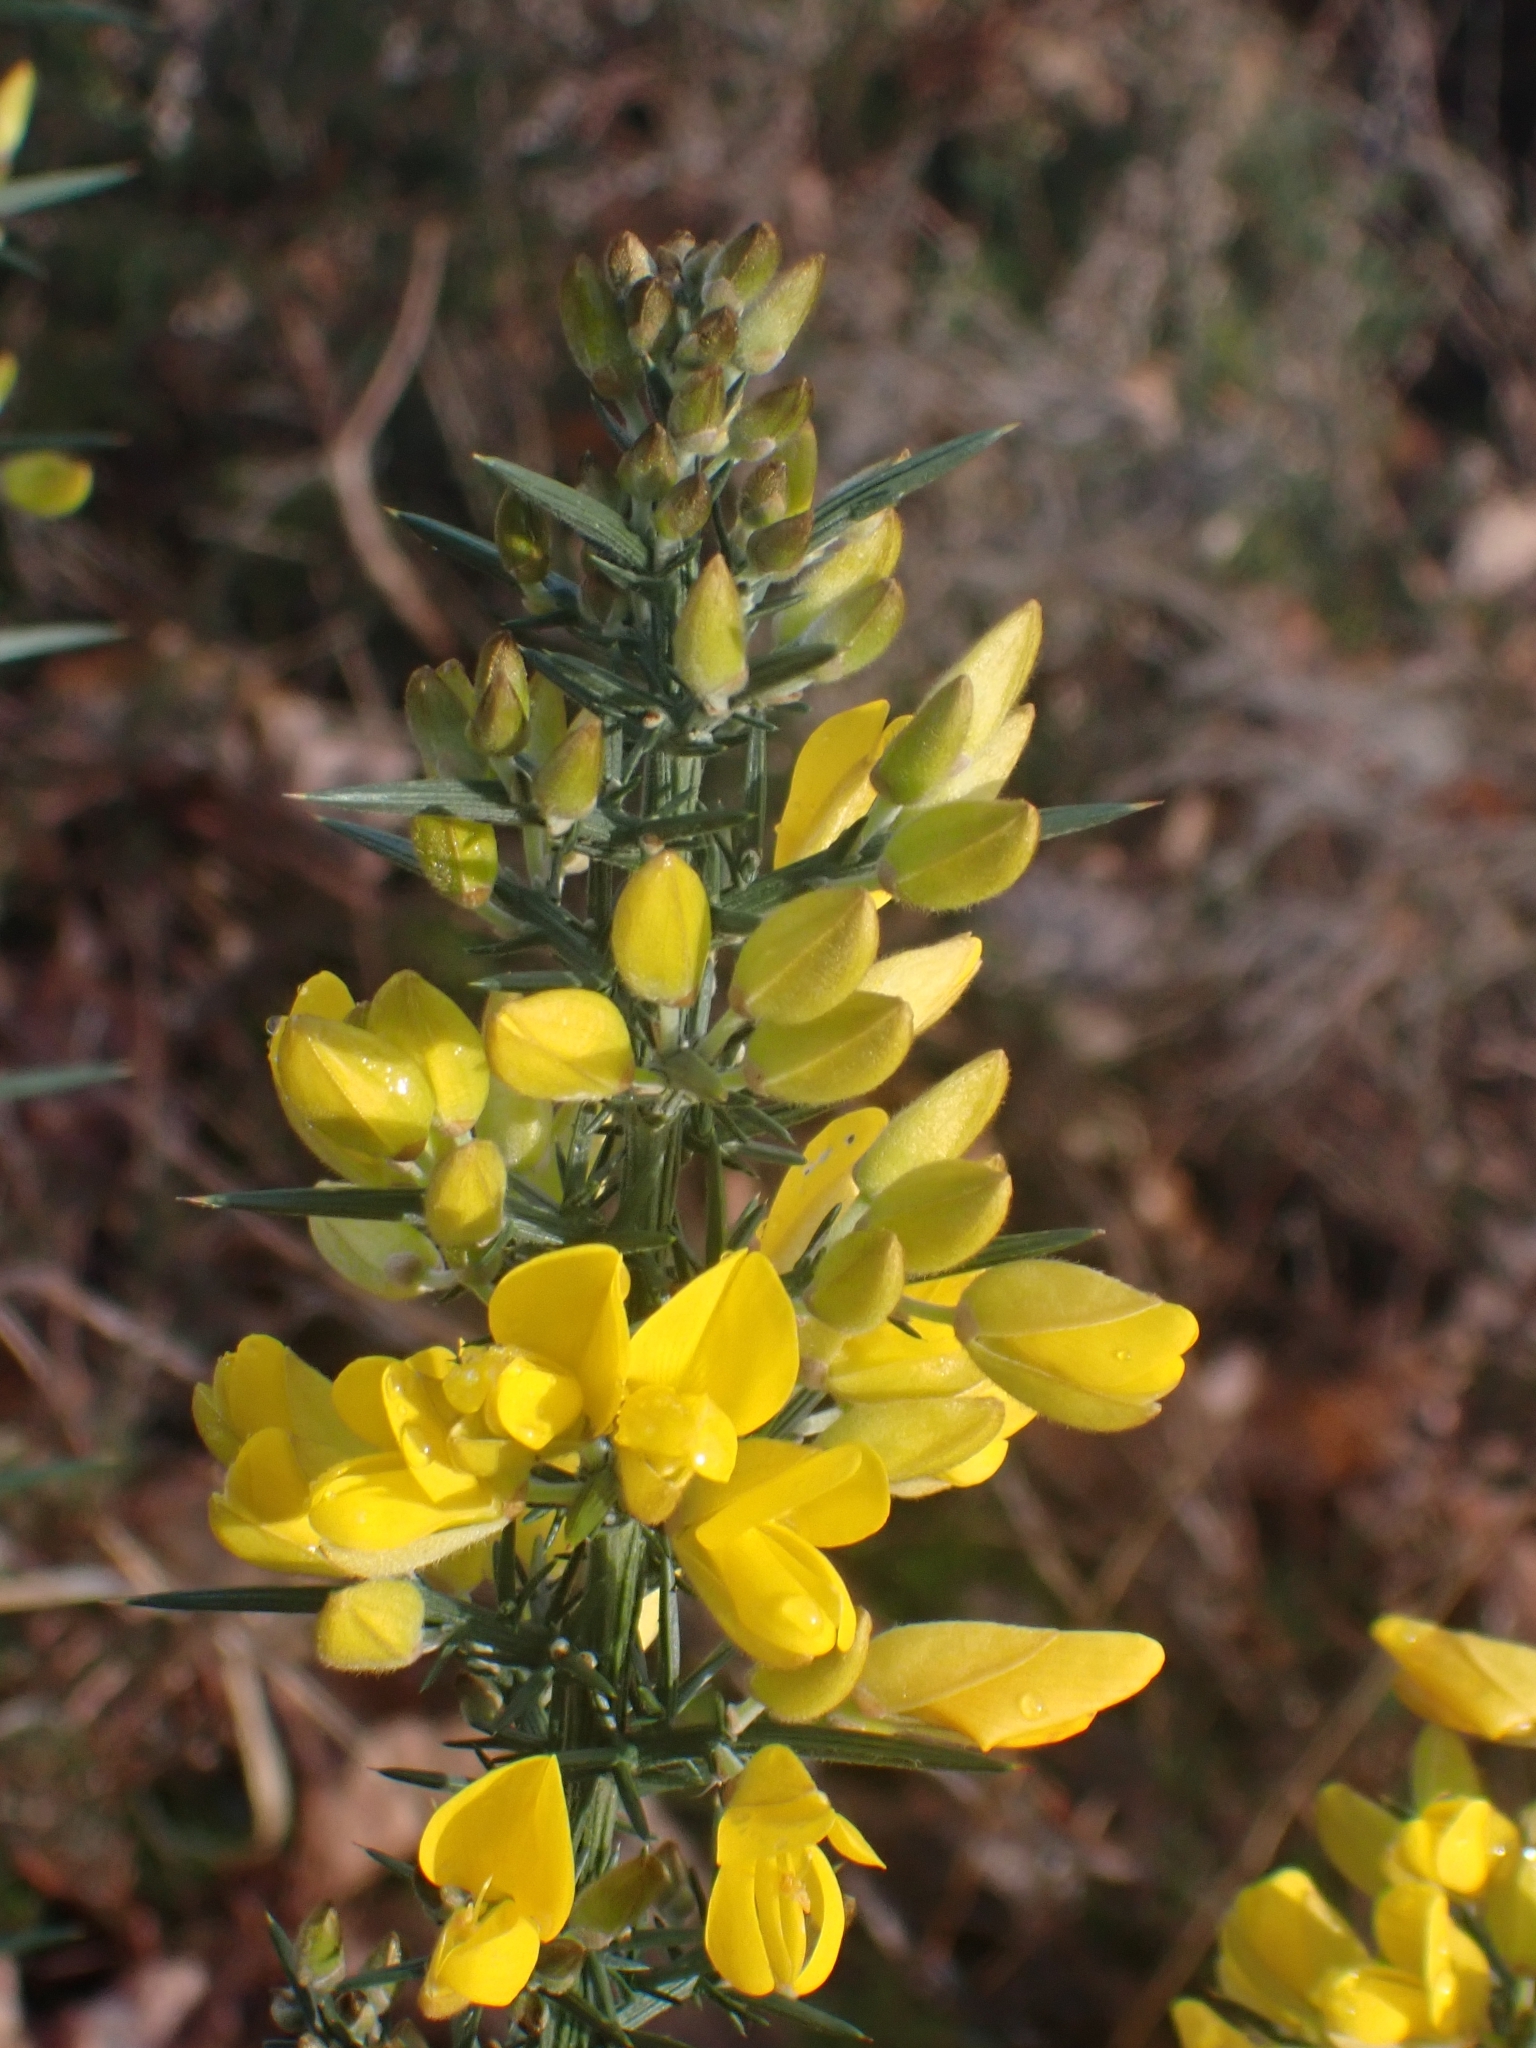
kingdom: Plantae
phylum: Tracheophyta
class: Magnoliopsida
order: Fabales
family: Fabaceae
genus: Ulex
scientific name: Ulex europaeus
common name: Common gorse
